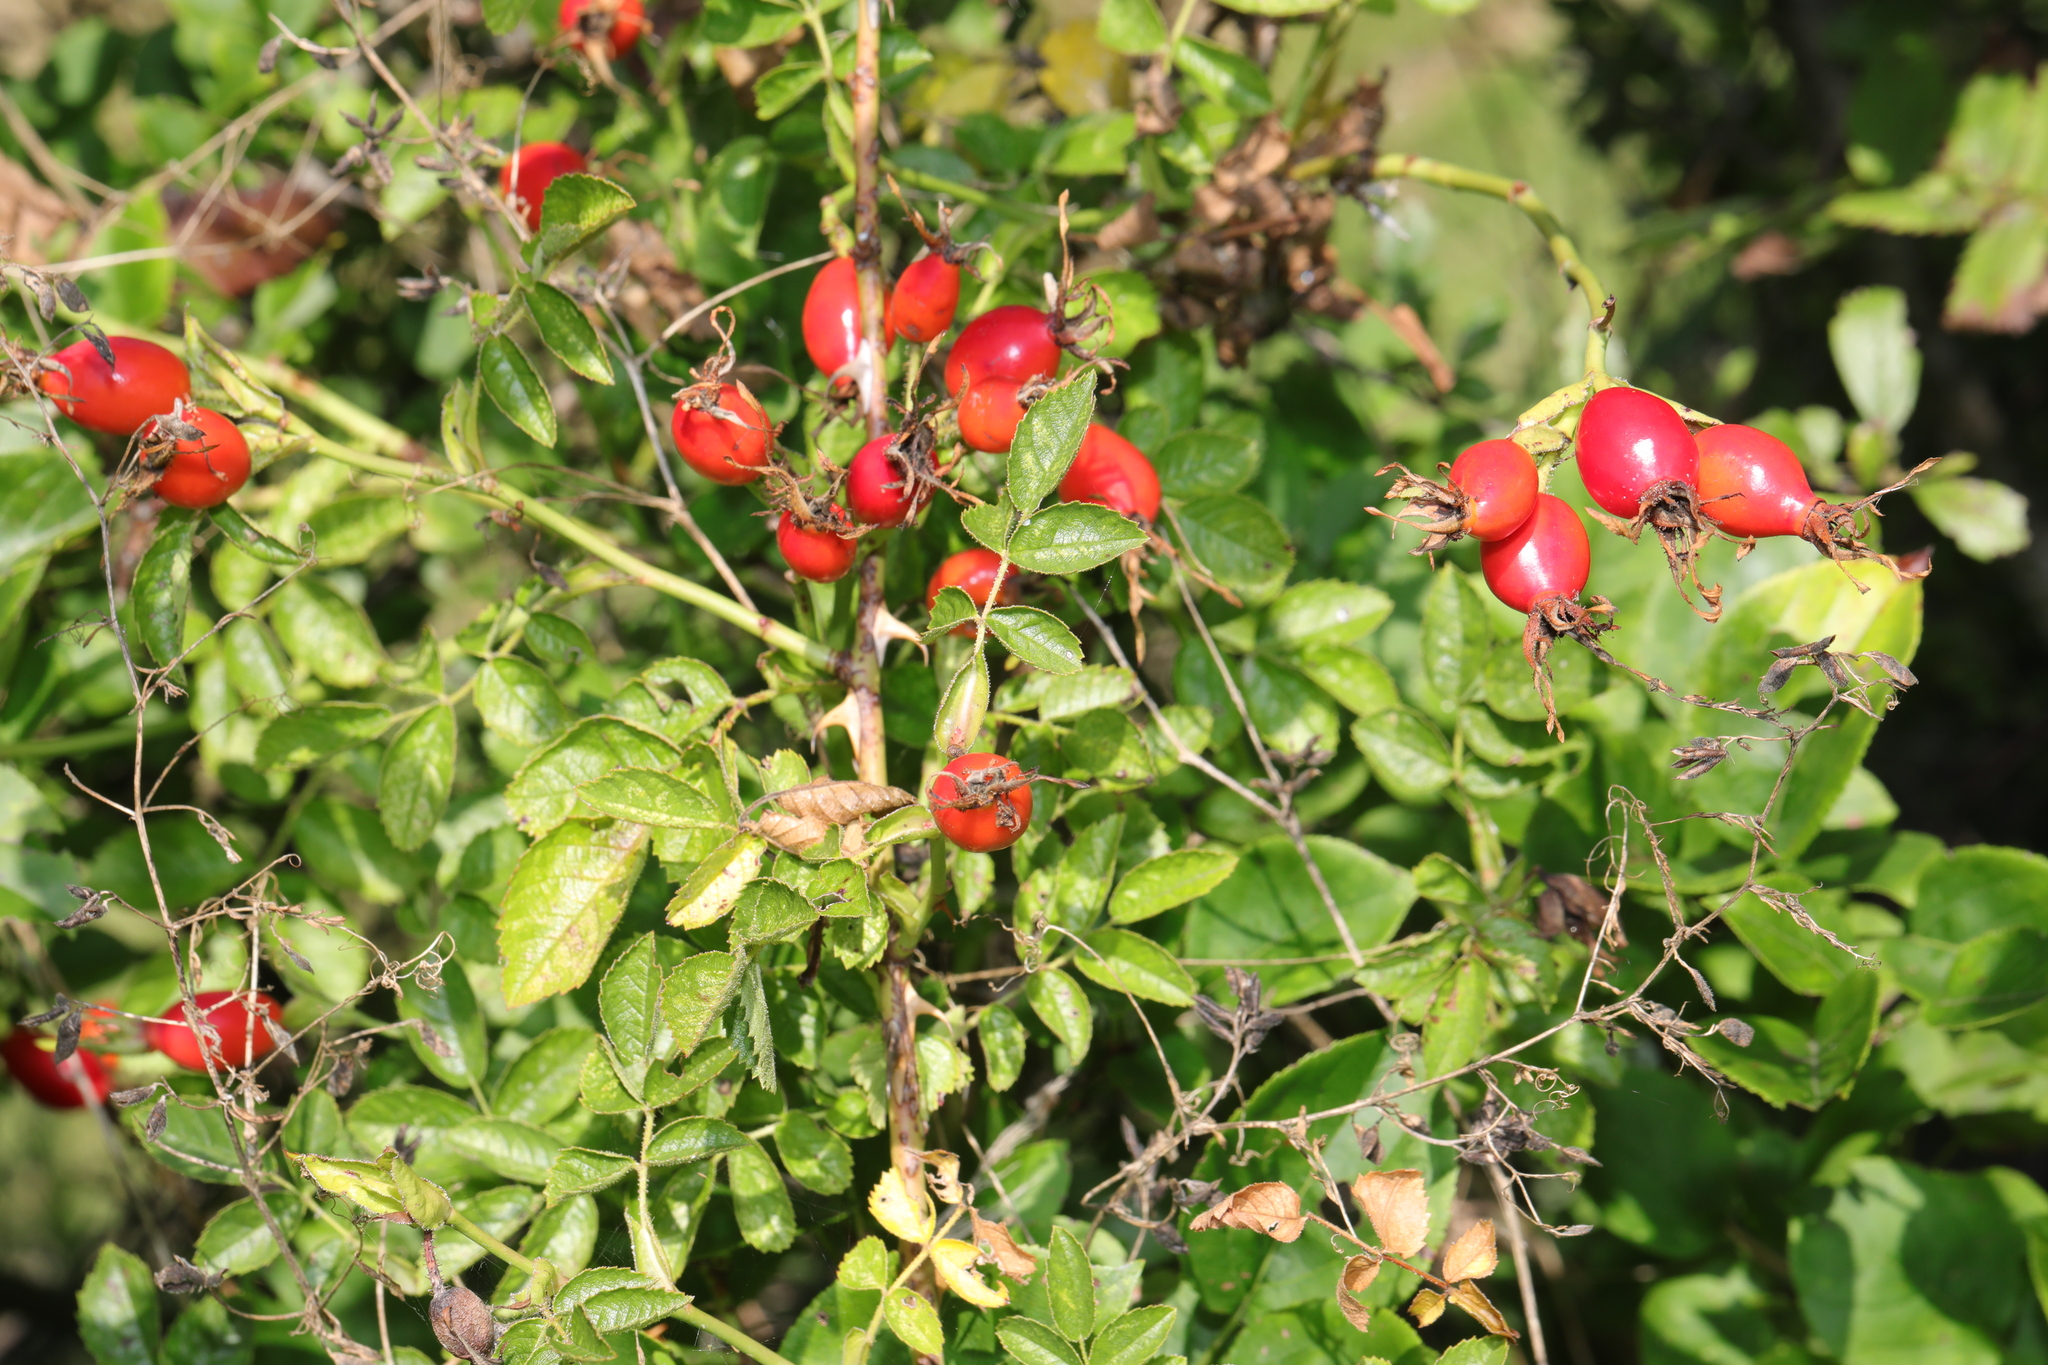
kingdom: Plantae
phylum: Tracheophyta
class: Magnoliopsida
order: Rosales
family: Rosaceae
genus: Rosa
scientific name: Rosa canina
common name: Dog rose
